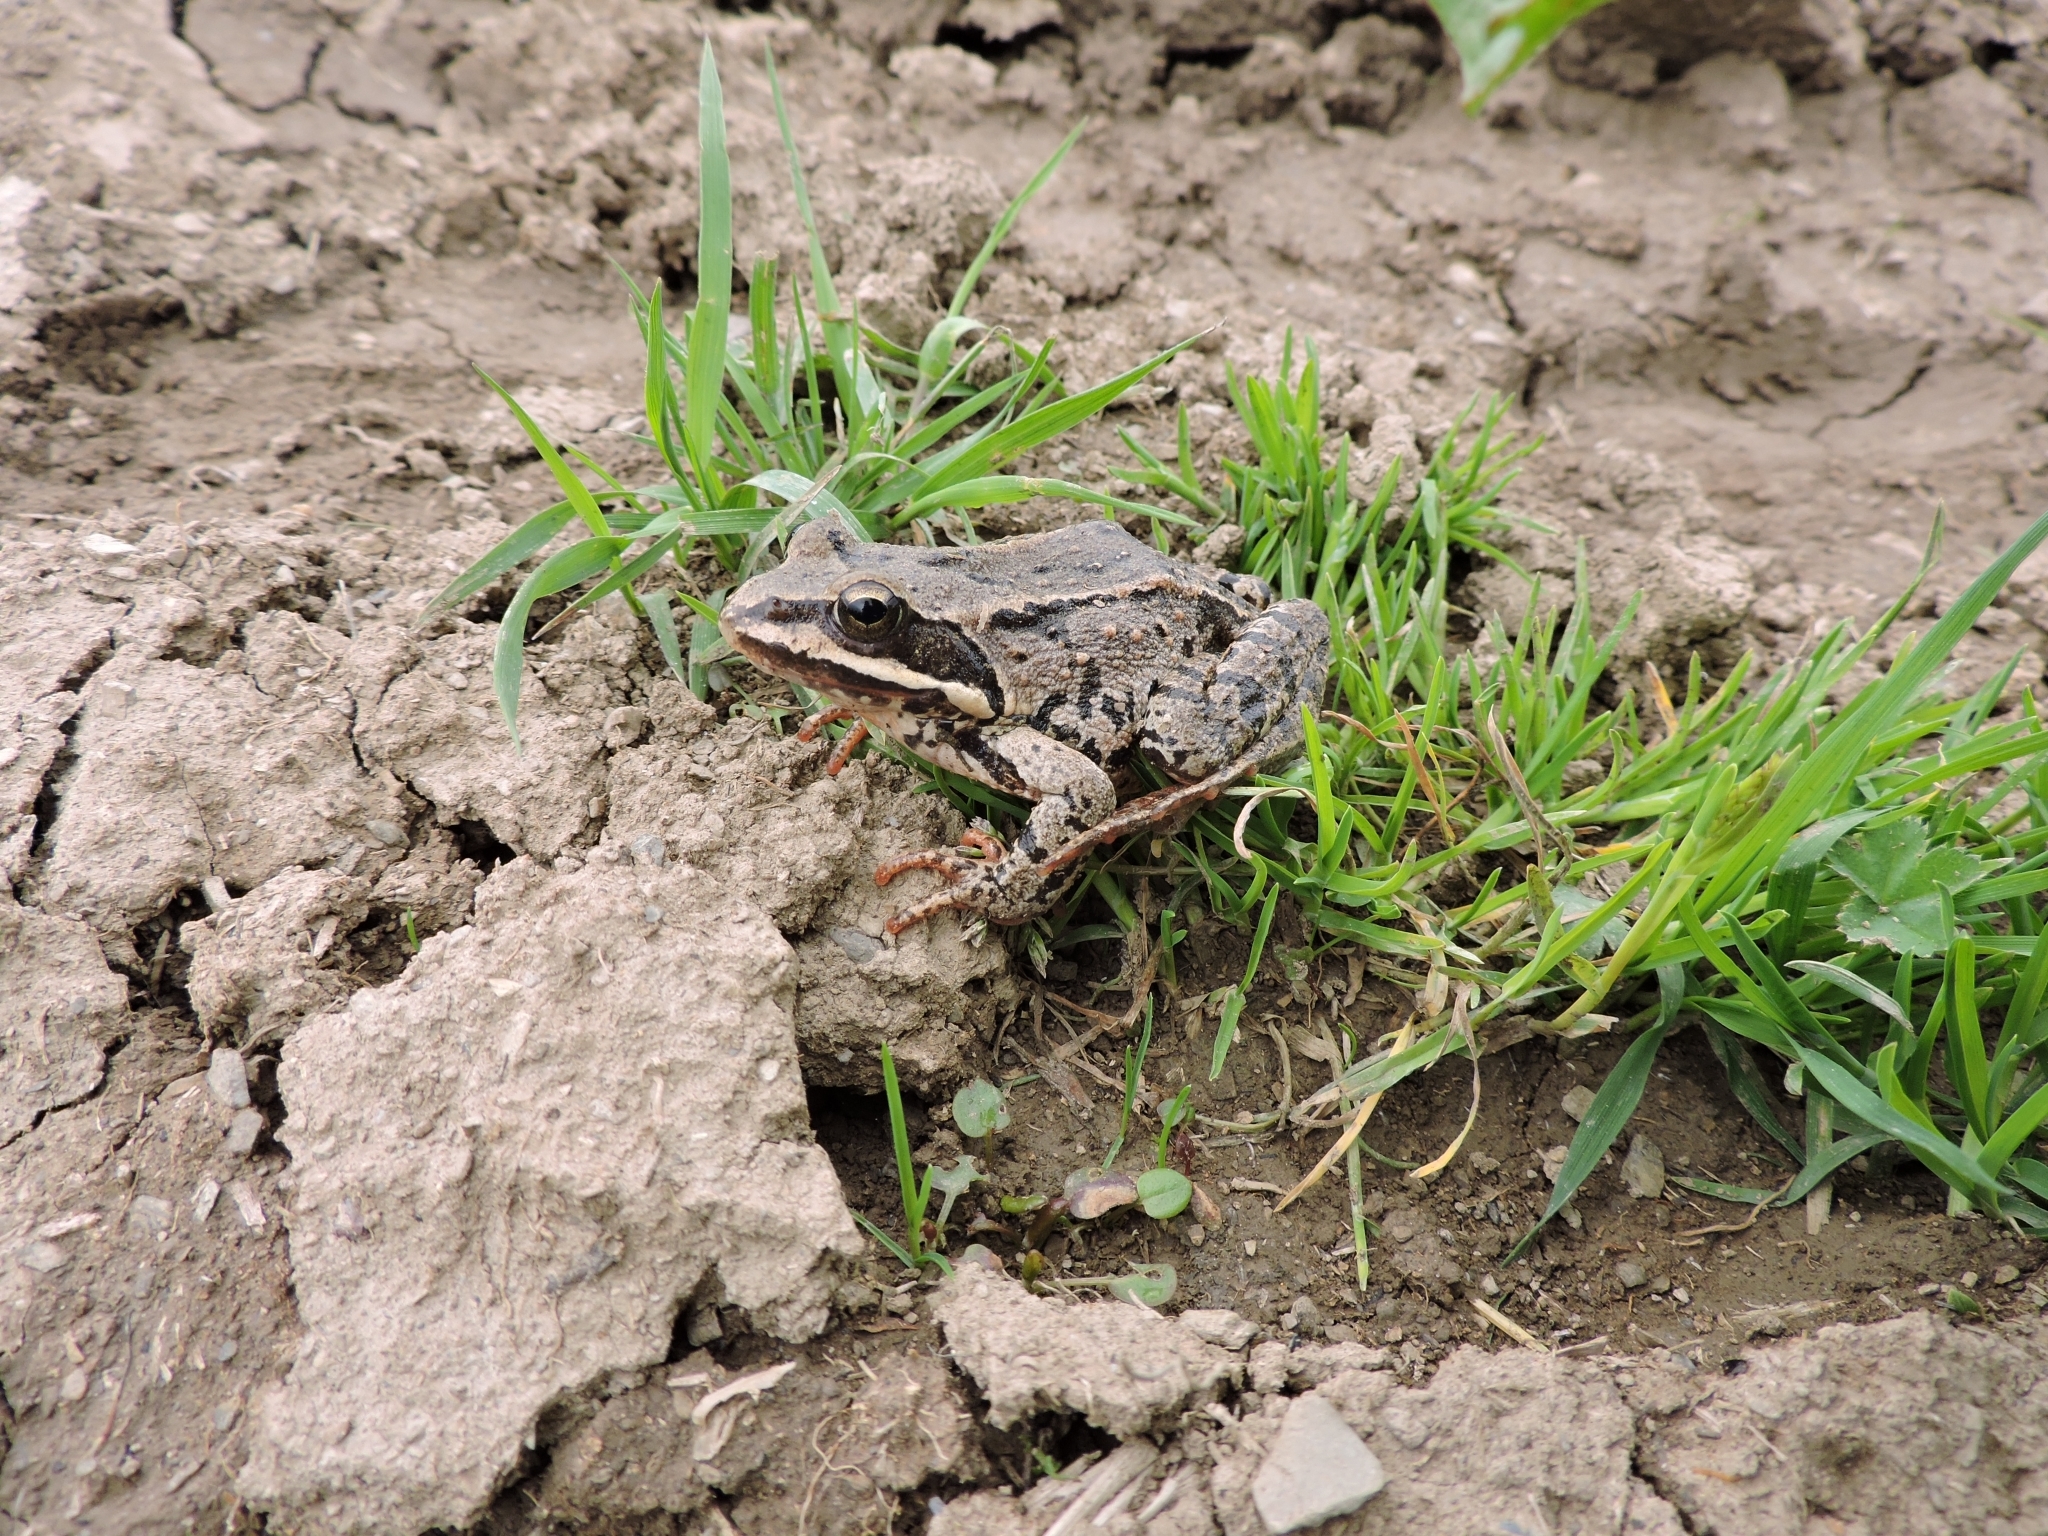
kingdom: Animalia
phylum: Chordata
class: Amphibia
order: Anura
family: Ranidae
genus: Rana
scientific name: Rana macrocnemis
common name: Banded frog
